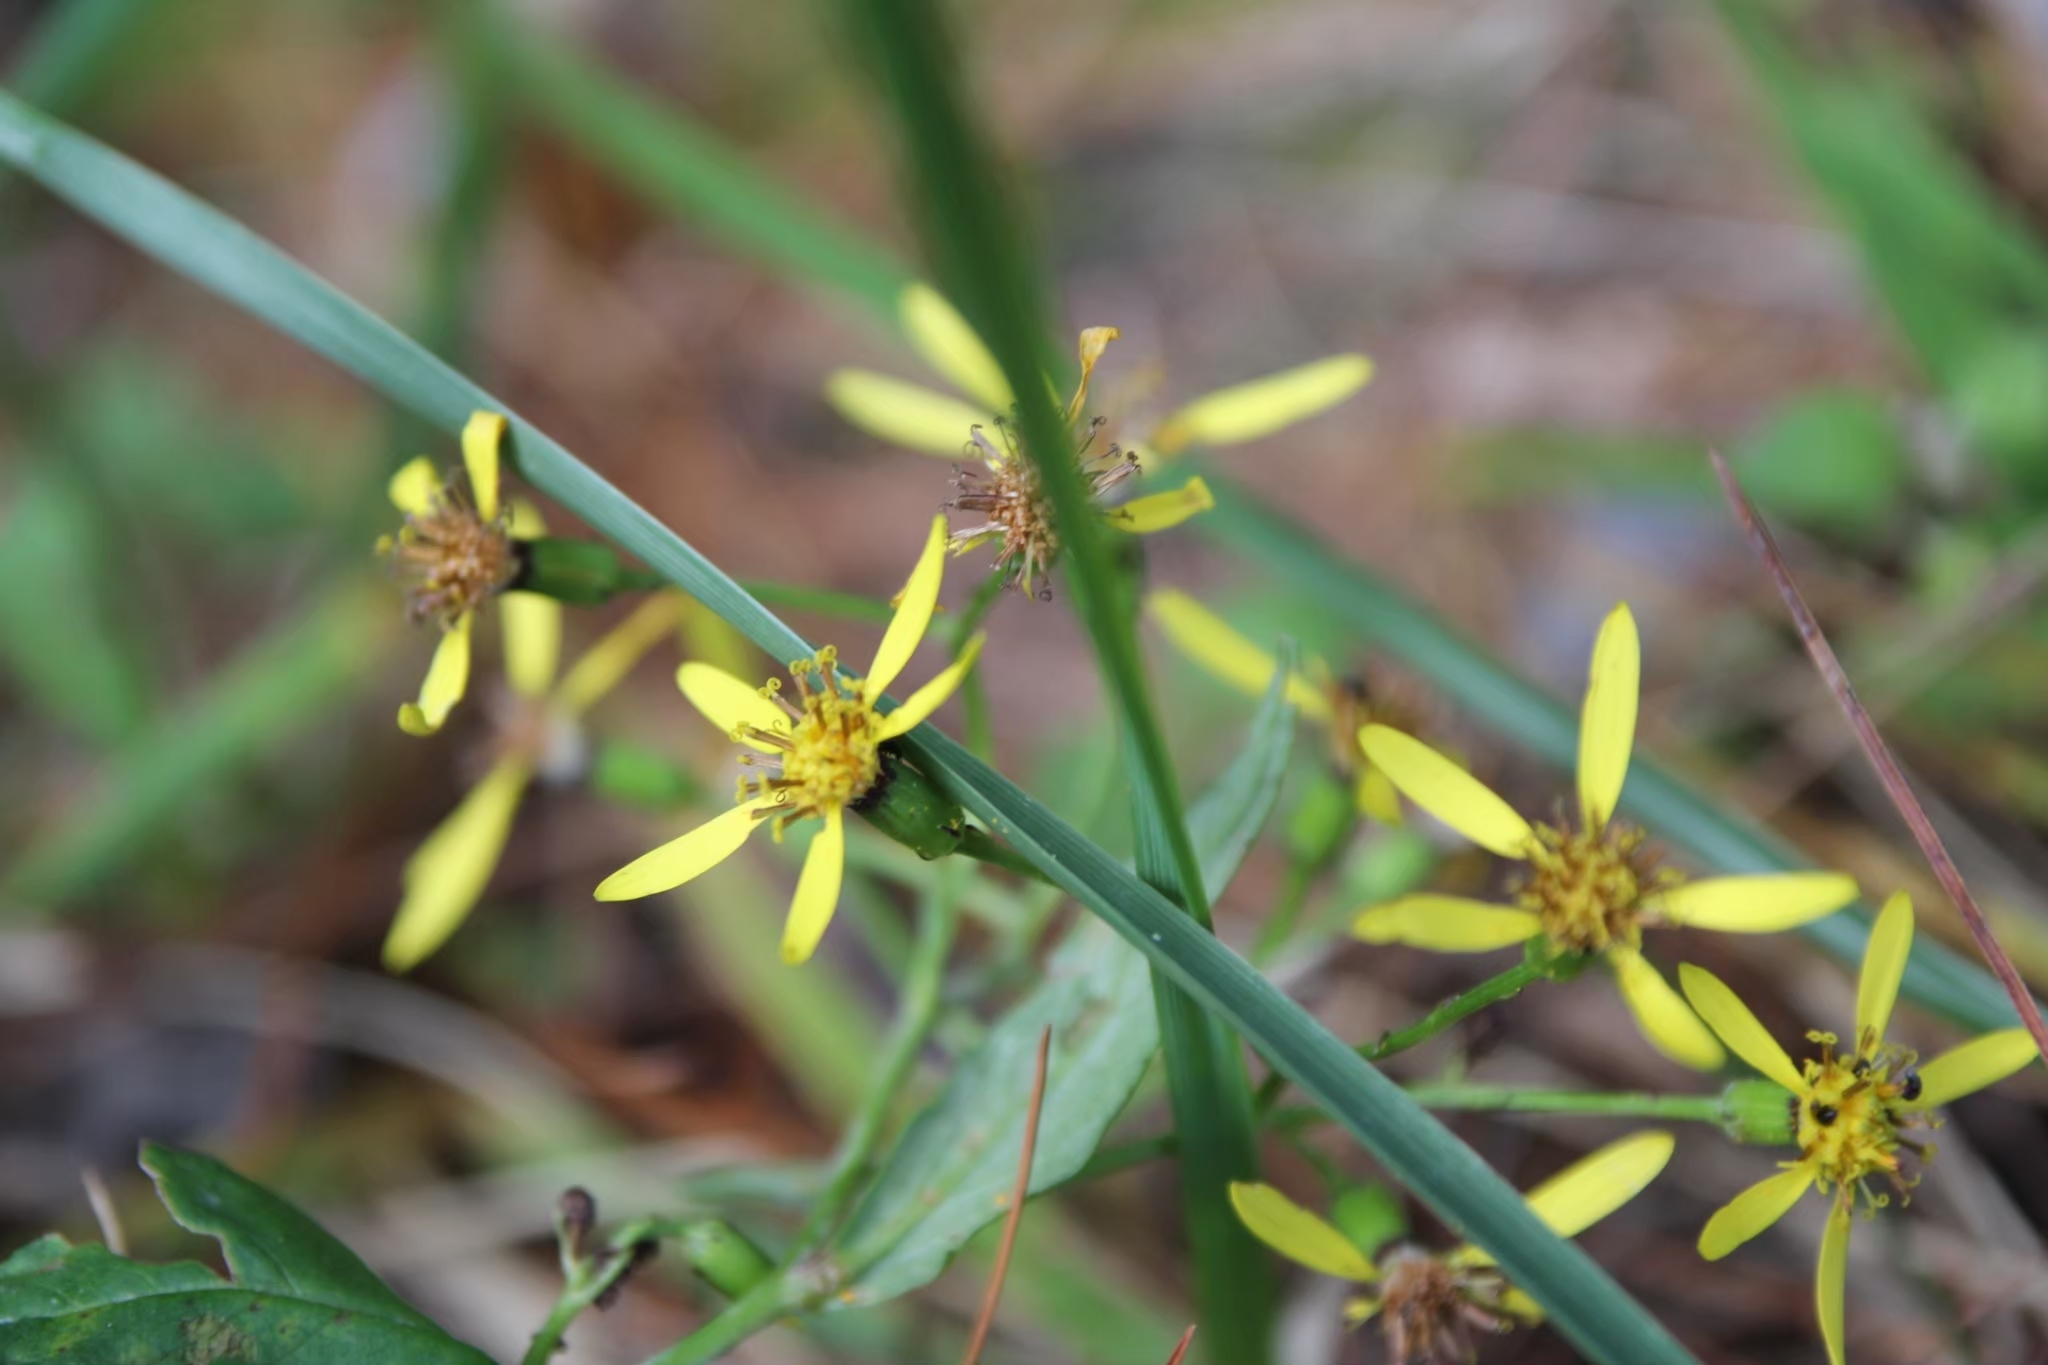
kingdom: Plantae
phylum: Tracheophyta
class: Magnoliopsida
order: Asterales
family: Asteraceae
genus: Senecio
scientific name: Senecio scandens
